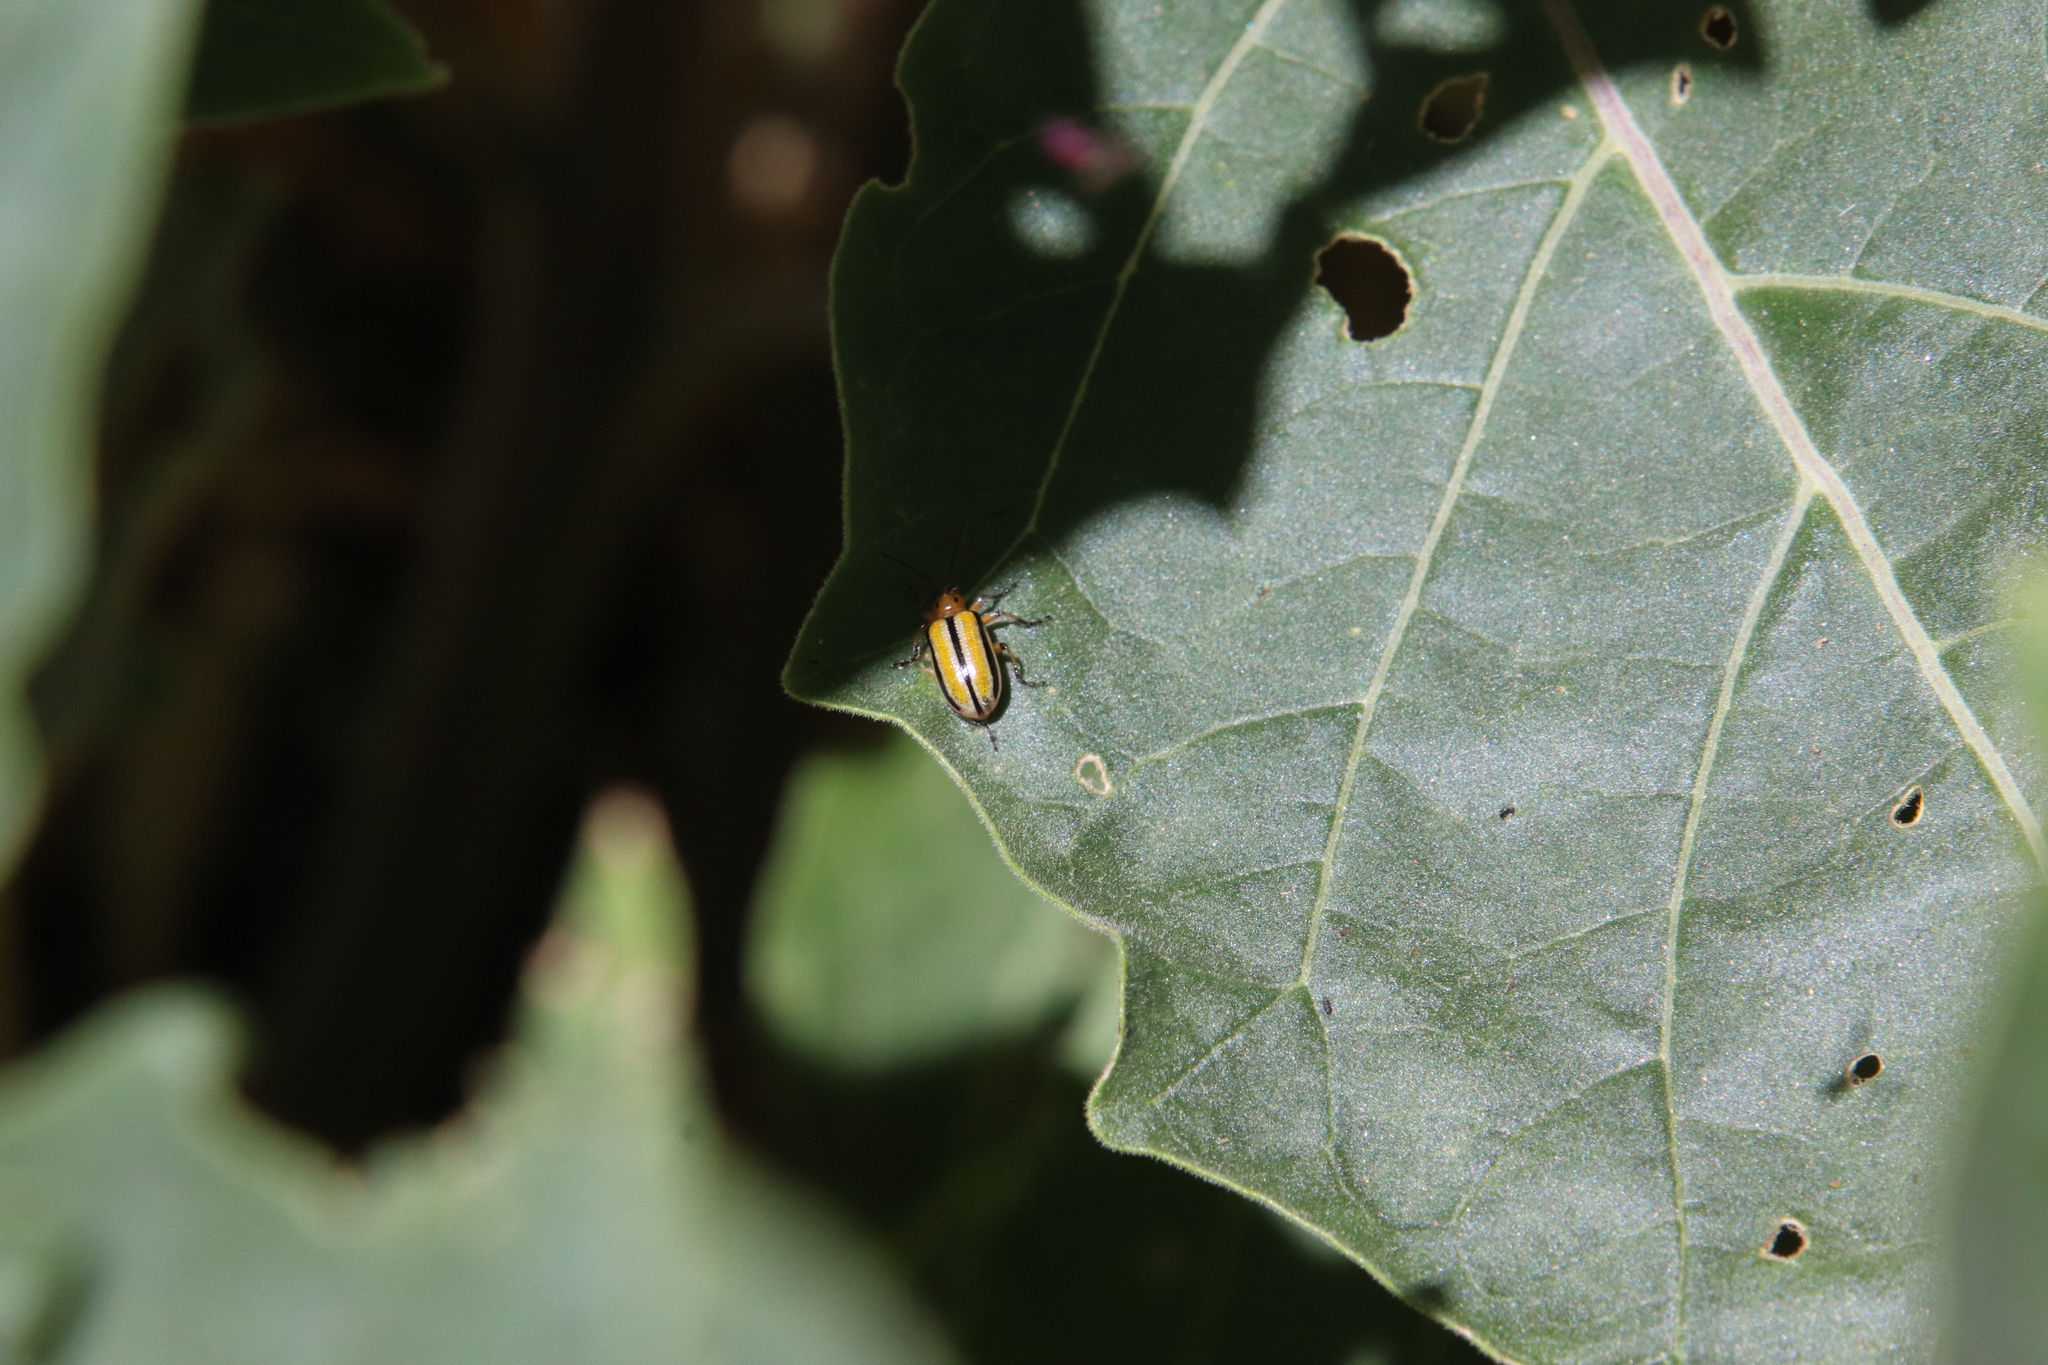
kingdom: Animalia
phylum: Arthropoda
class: Insecta
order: Coleoptera
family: Chrysomelidae
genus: Lema
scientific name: Lema daturaphila
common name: Leaf beetle
